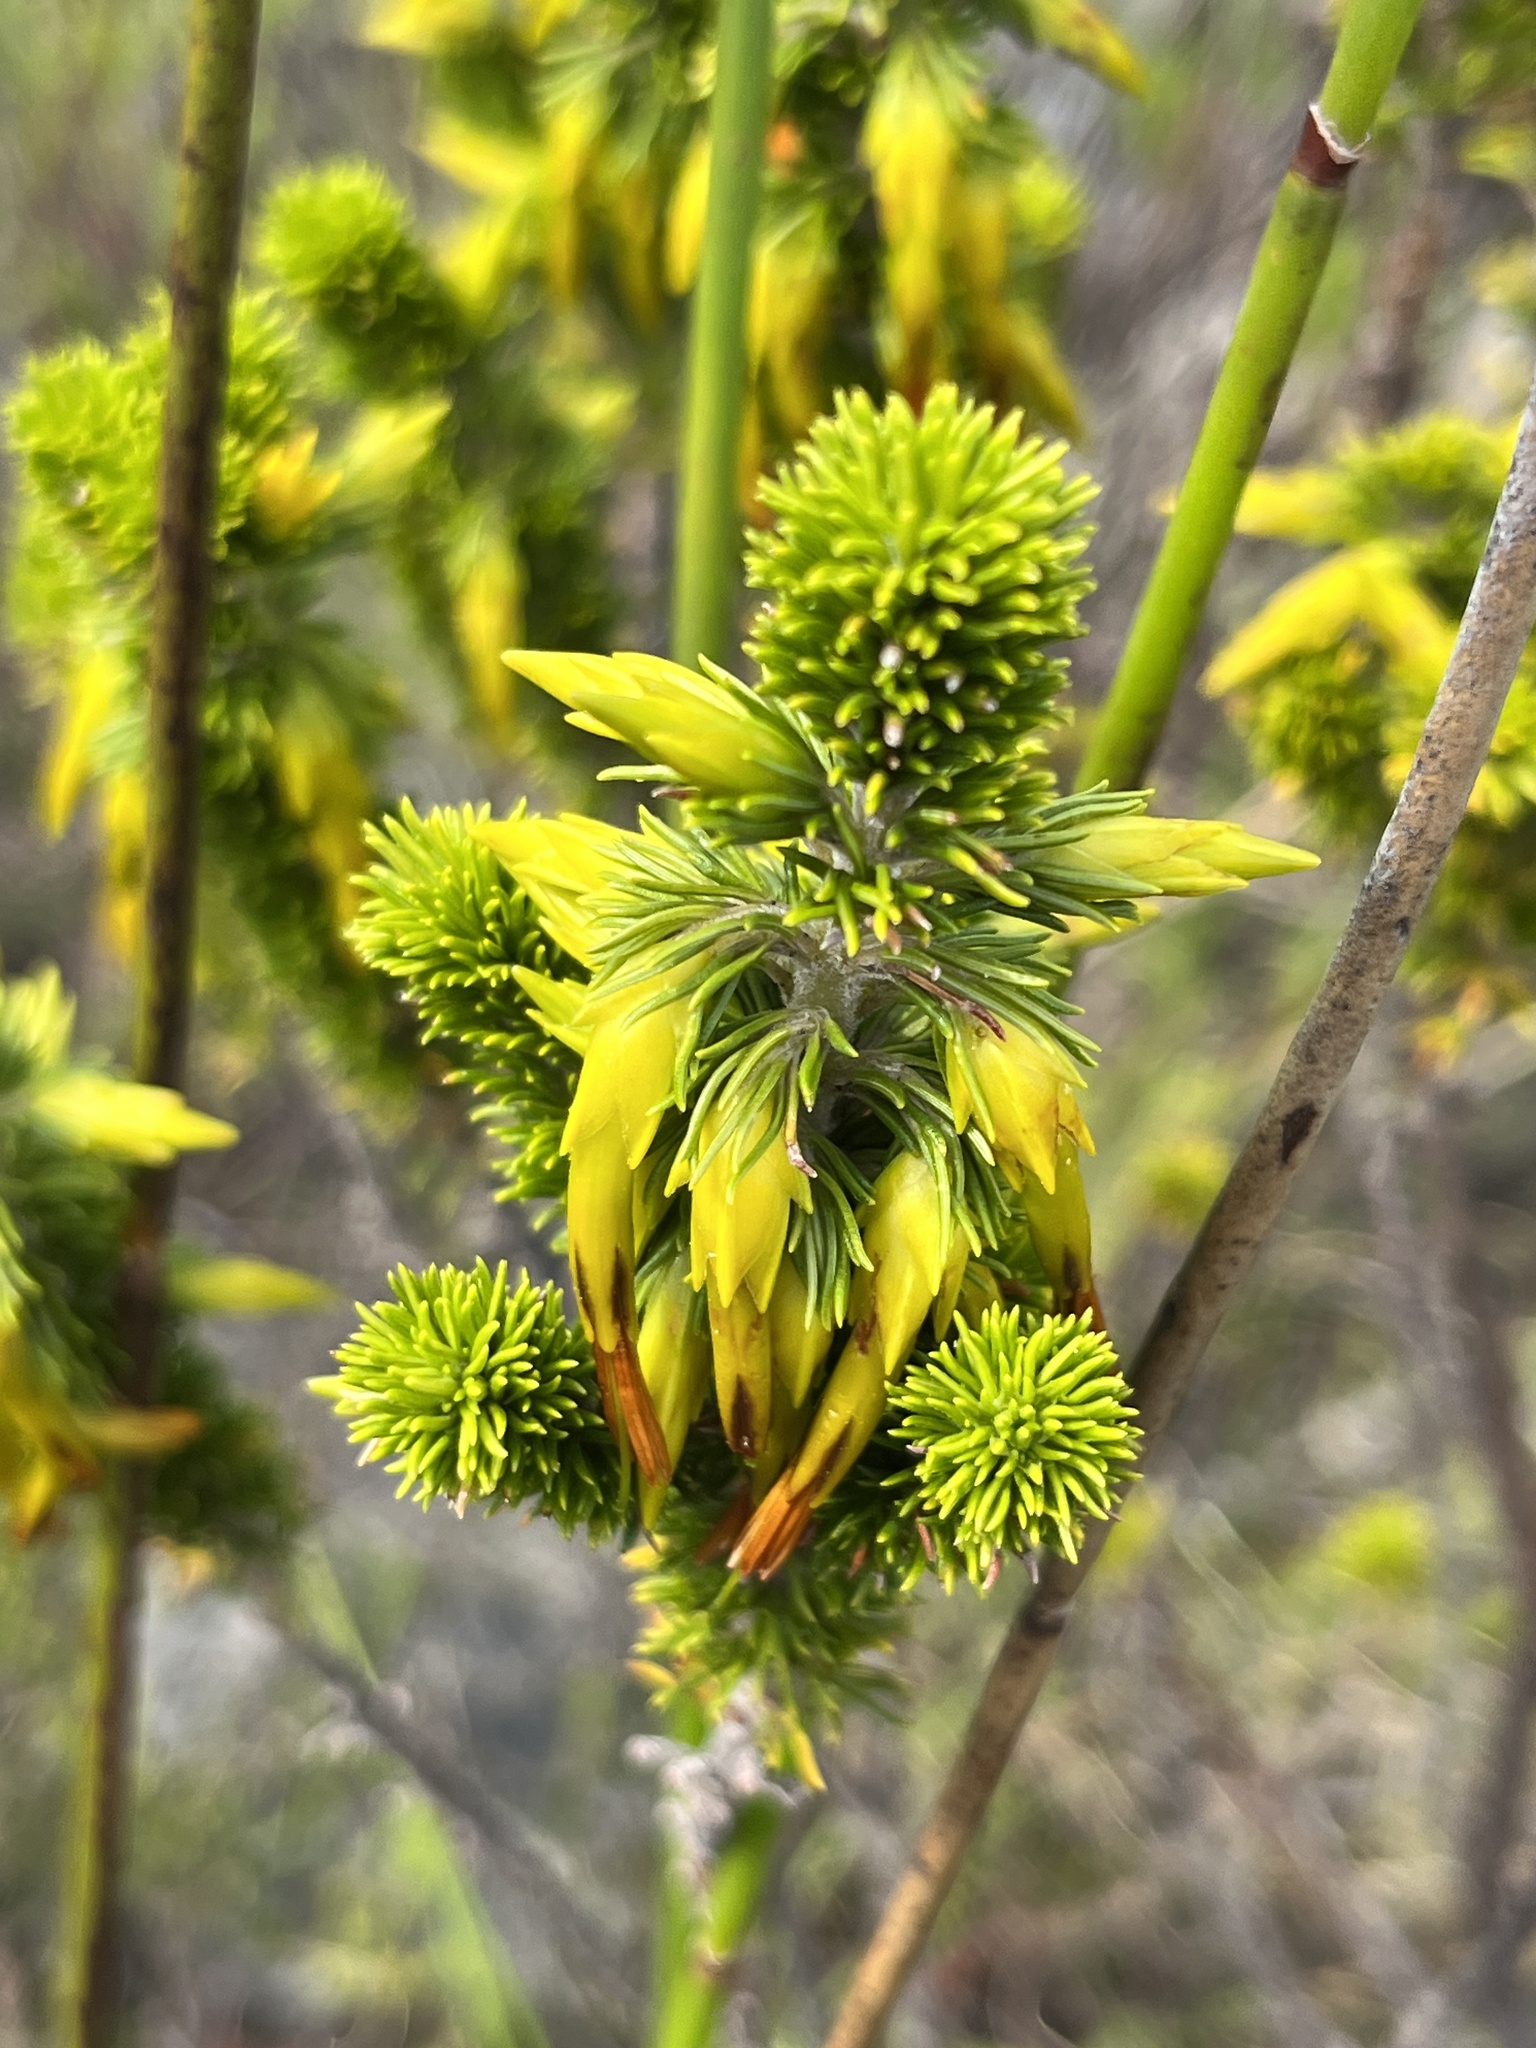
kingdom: Plantae
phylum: Tracheophyta
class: Magnoliopsida
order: Ericales
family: Ericaceae
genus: Erica
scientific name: Erica coccinea
